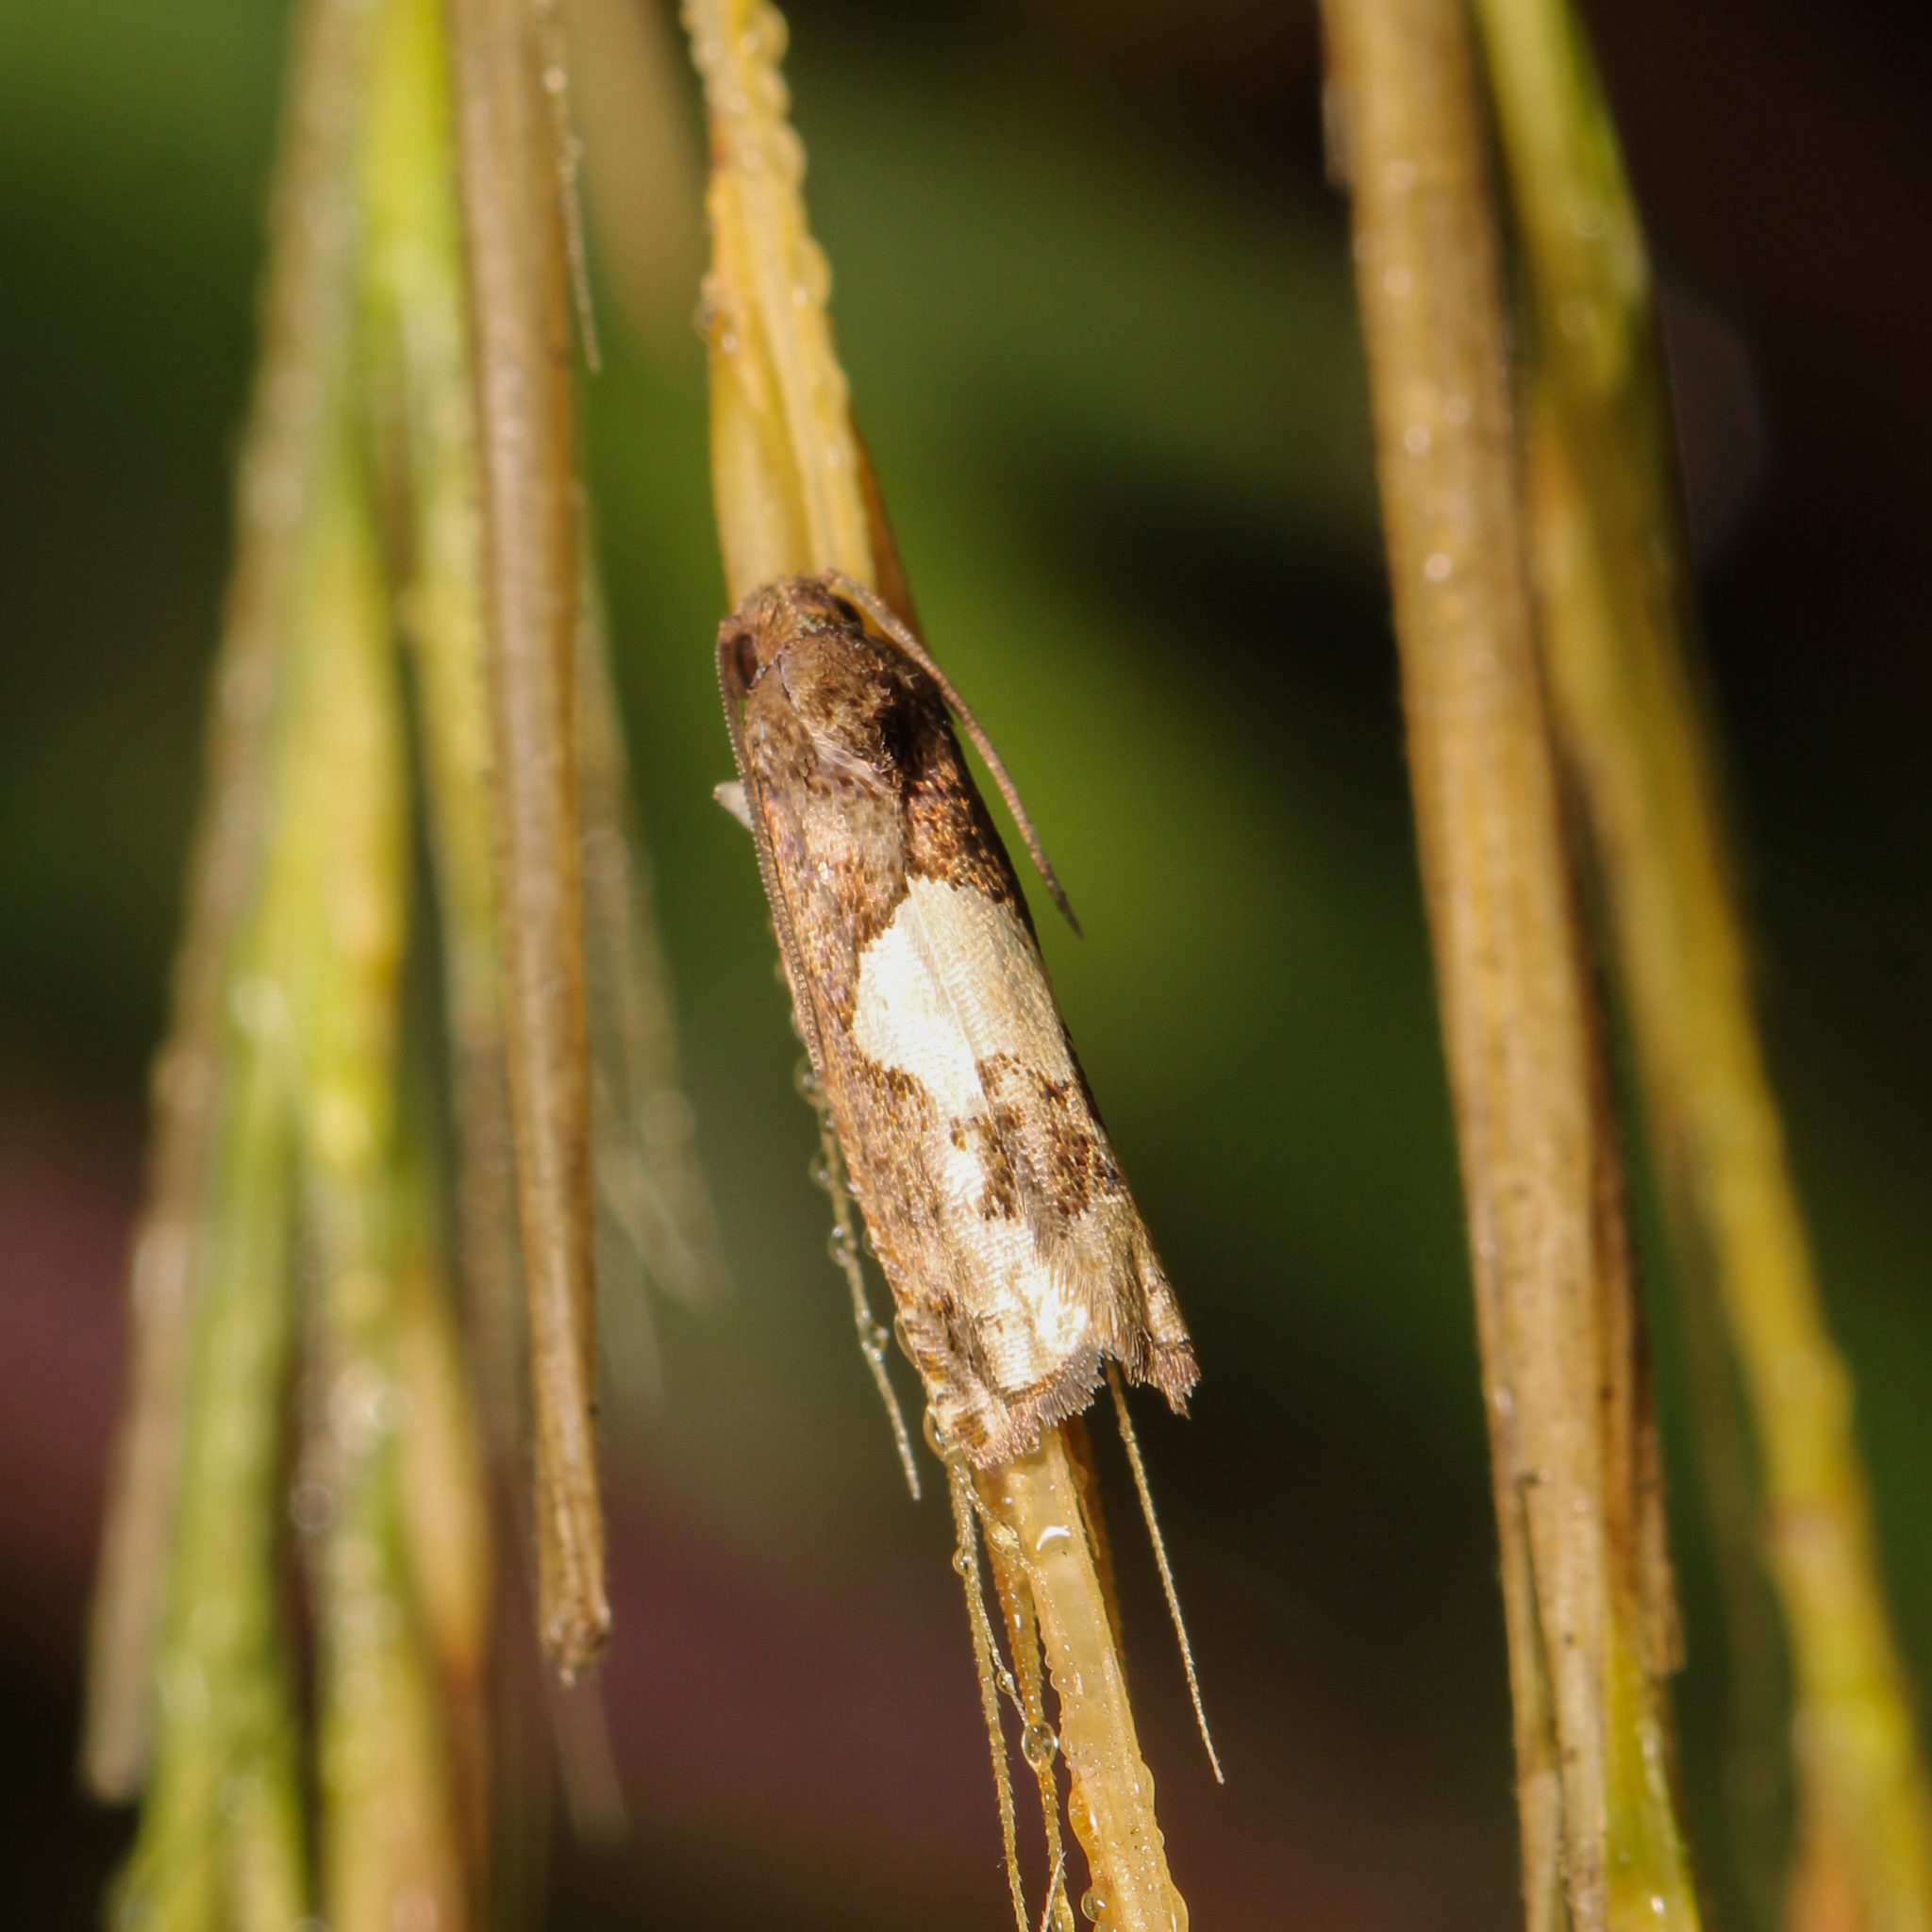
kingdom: Animalia
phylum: Arthropoda
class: Insecta
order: Lepidoptera
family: Tortricidae
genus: Epiblema
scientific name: Epiblema otiosana
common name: Bidens borer moth
